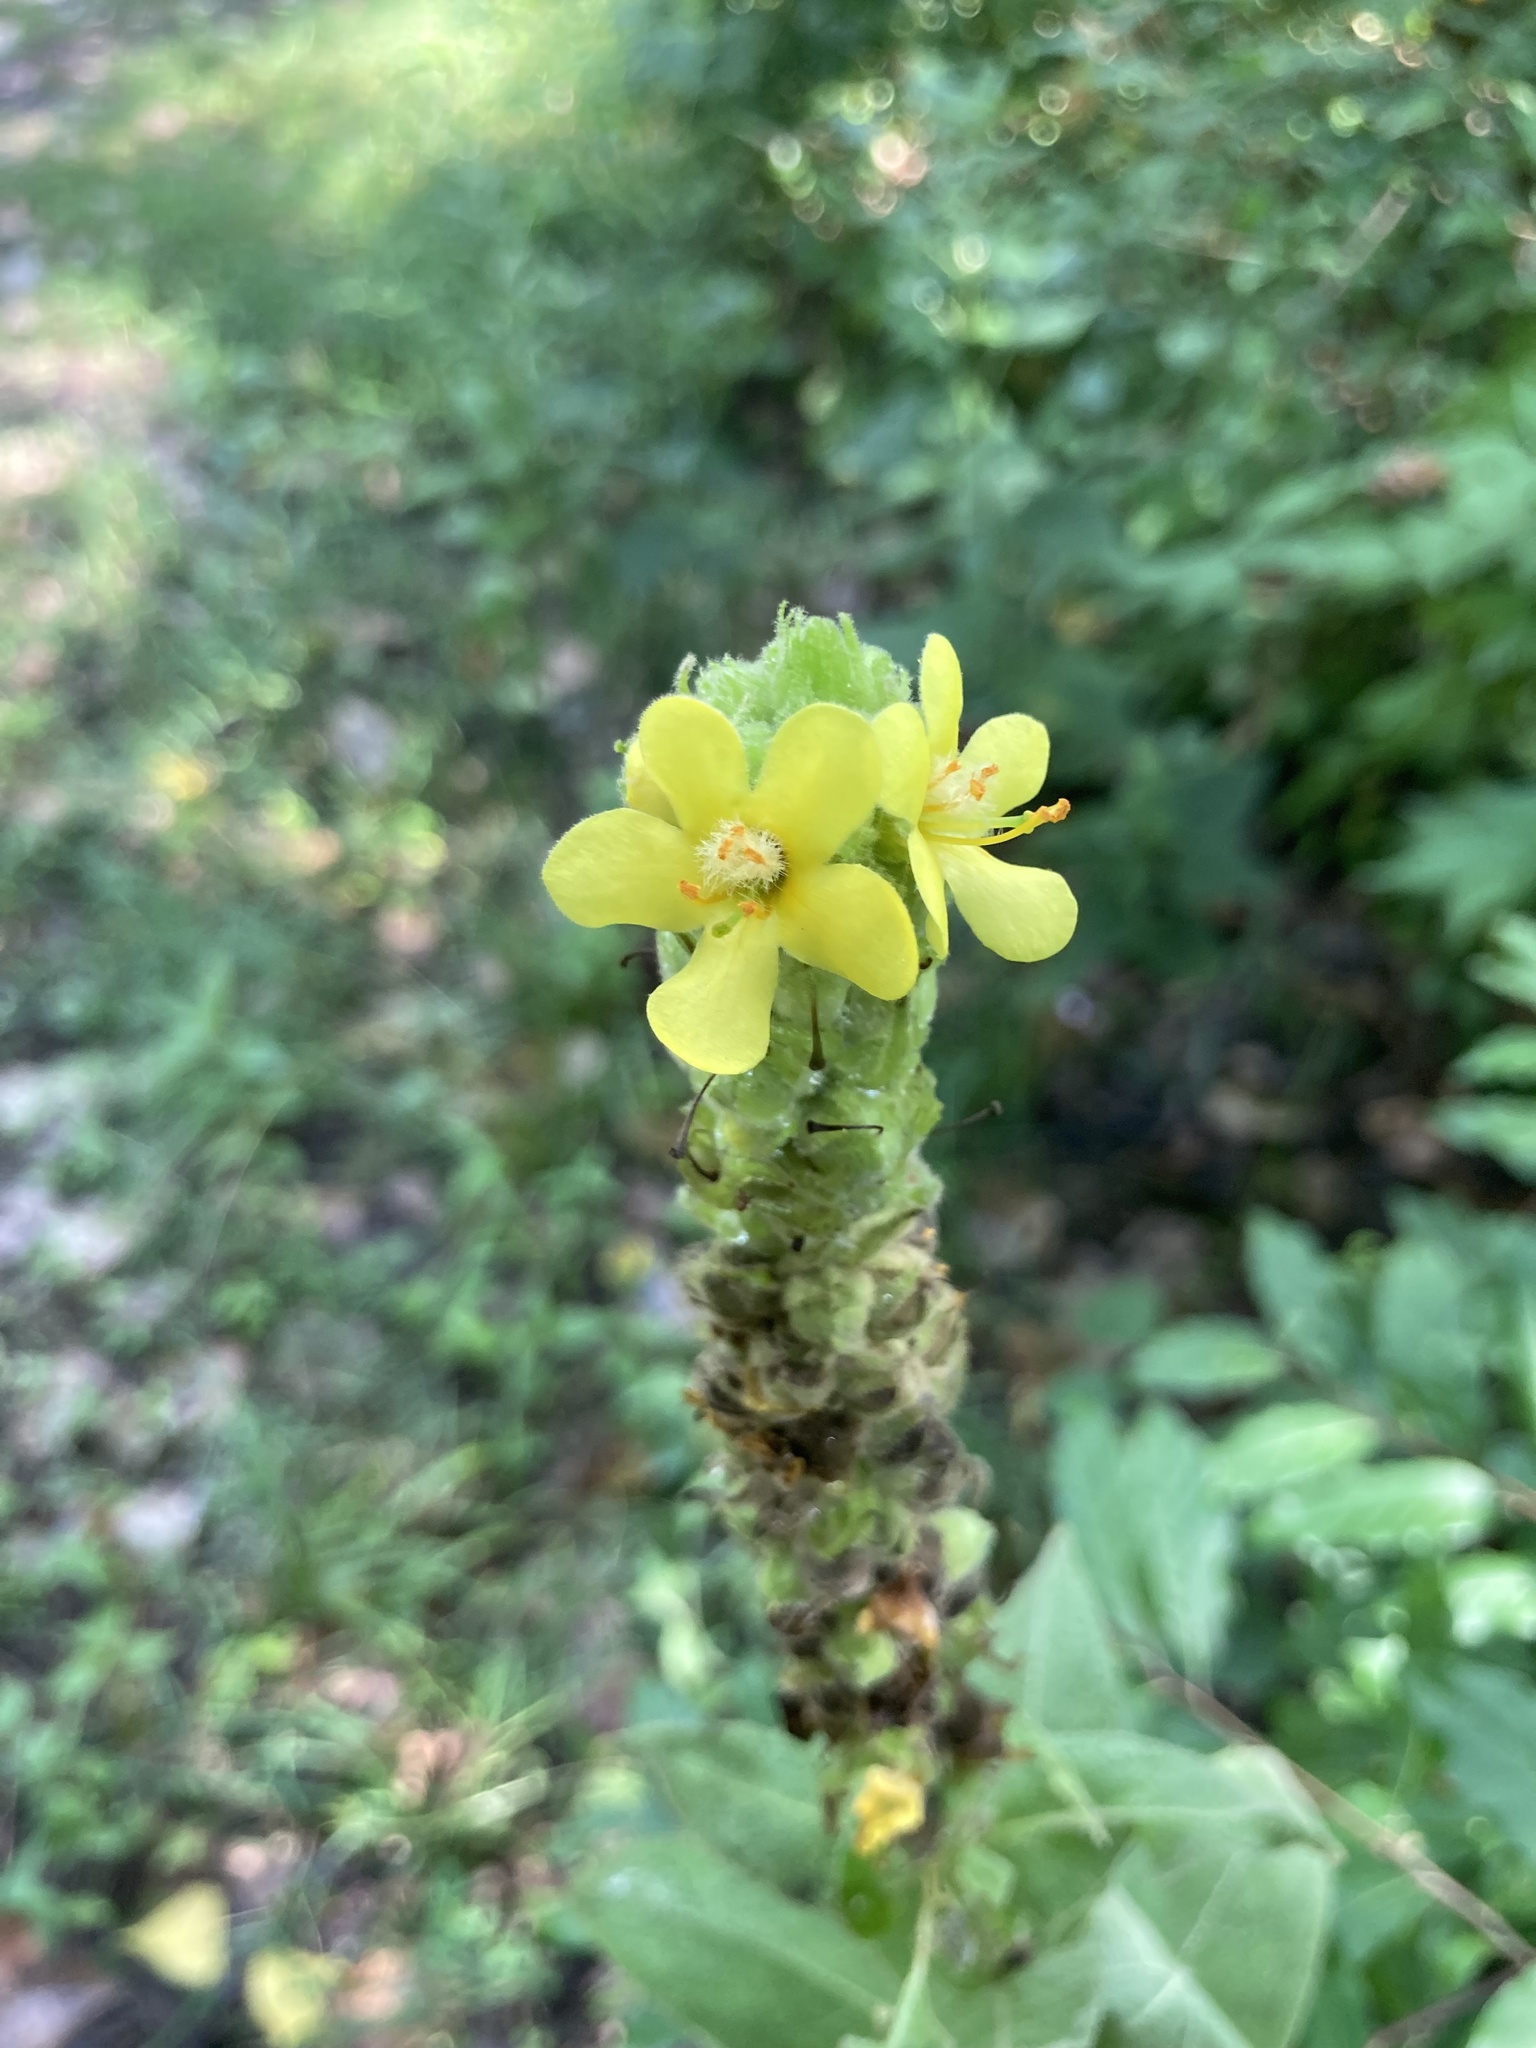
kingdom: Plantae
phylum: Tracheophyta
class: Magnoliopsida
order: Lamiales
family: Scrophulariaceae
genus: Verbascum
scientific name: Verbascum thapsus
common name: Common mullein
